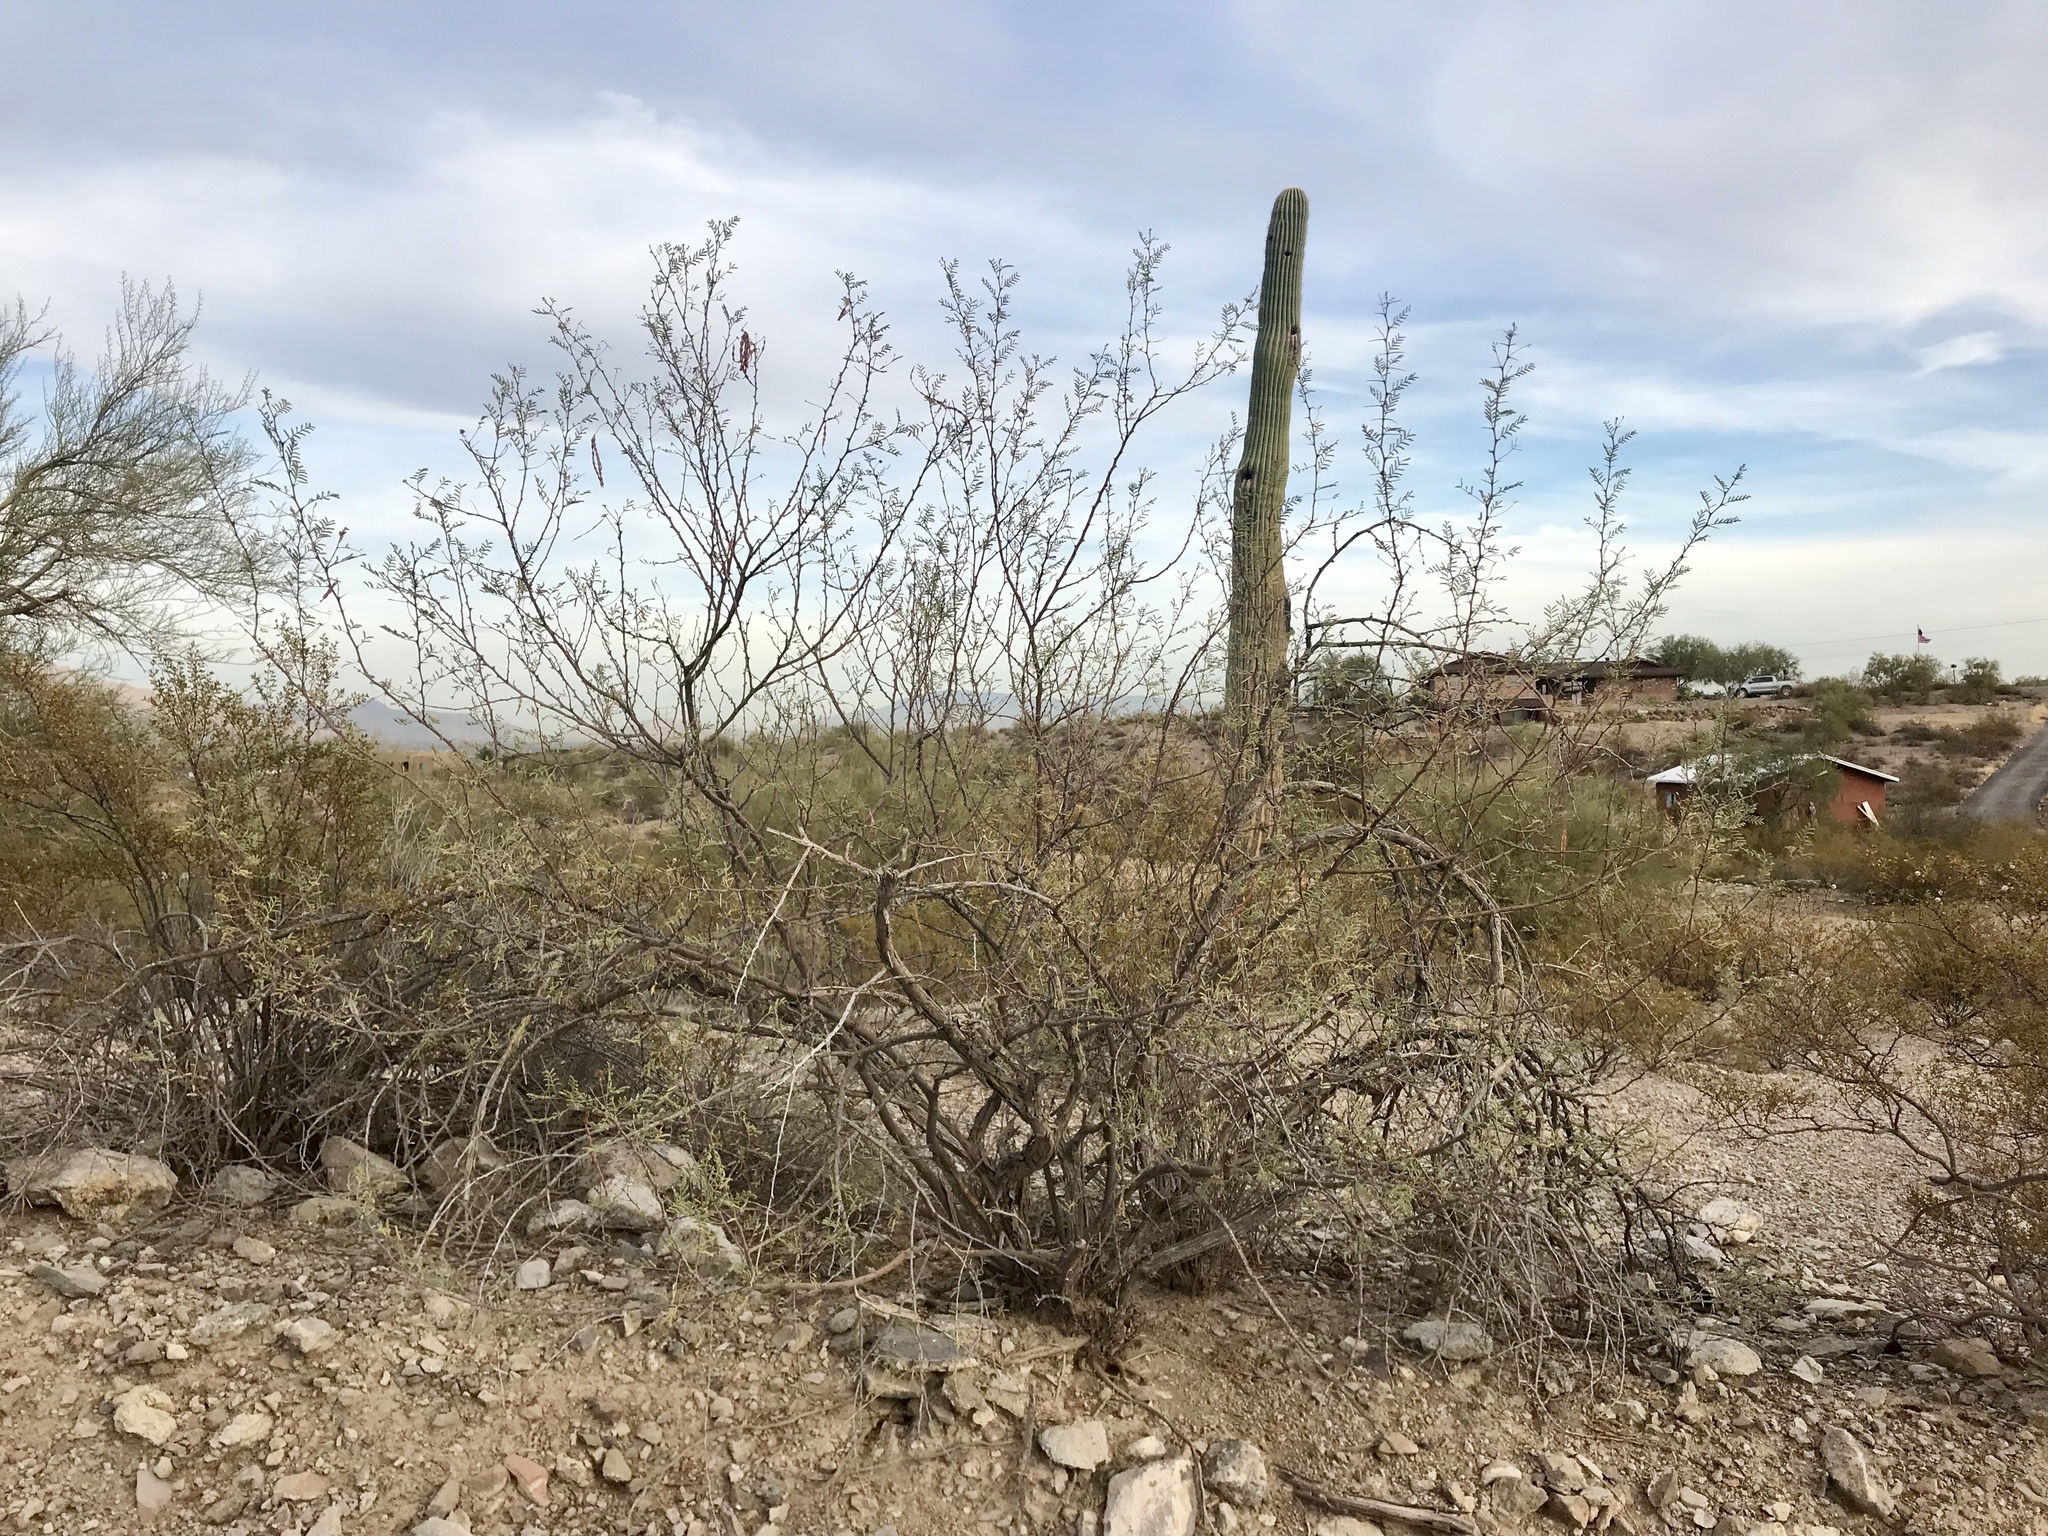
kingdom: Plantae
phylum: Tracheophyta
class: Magnoliopsida
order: Fabales
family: Fabaceae
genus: Vachellia
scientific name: Vachellia constricta
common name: Mescat acacia
